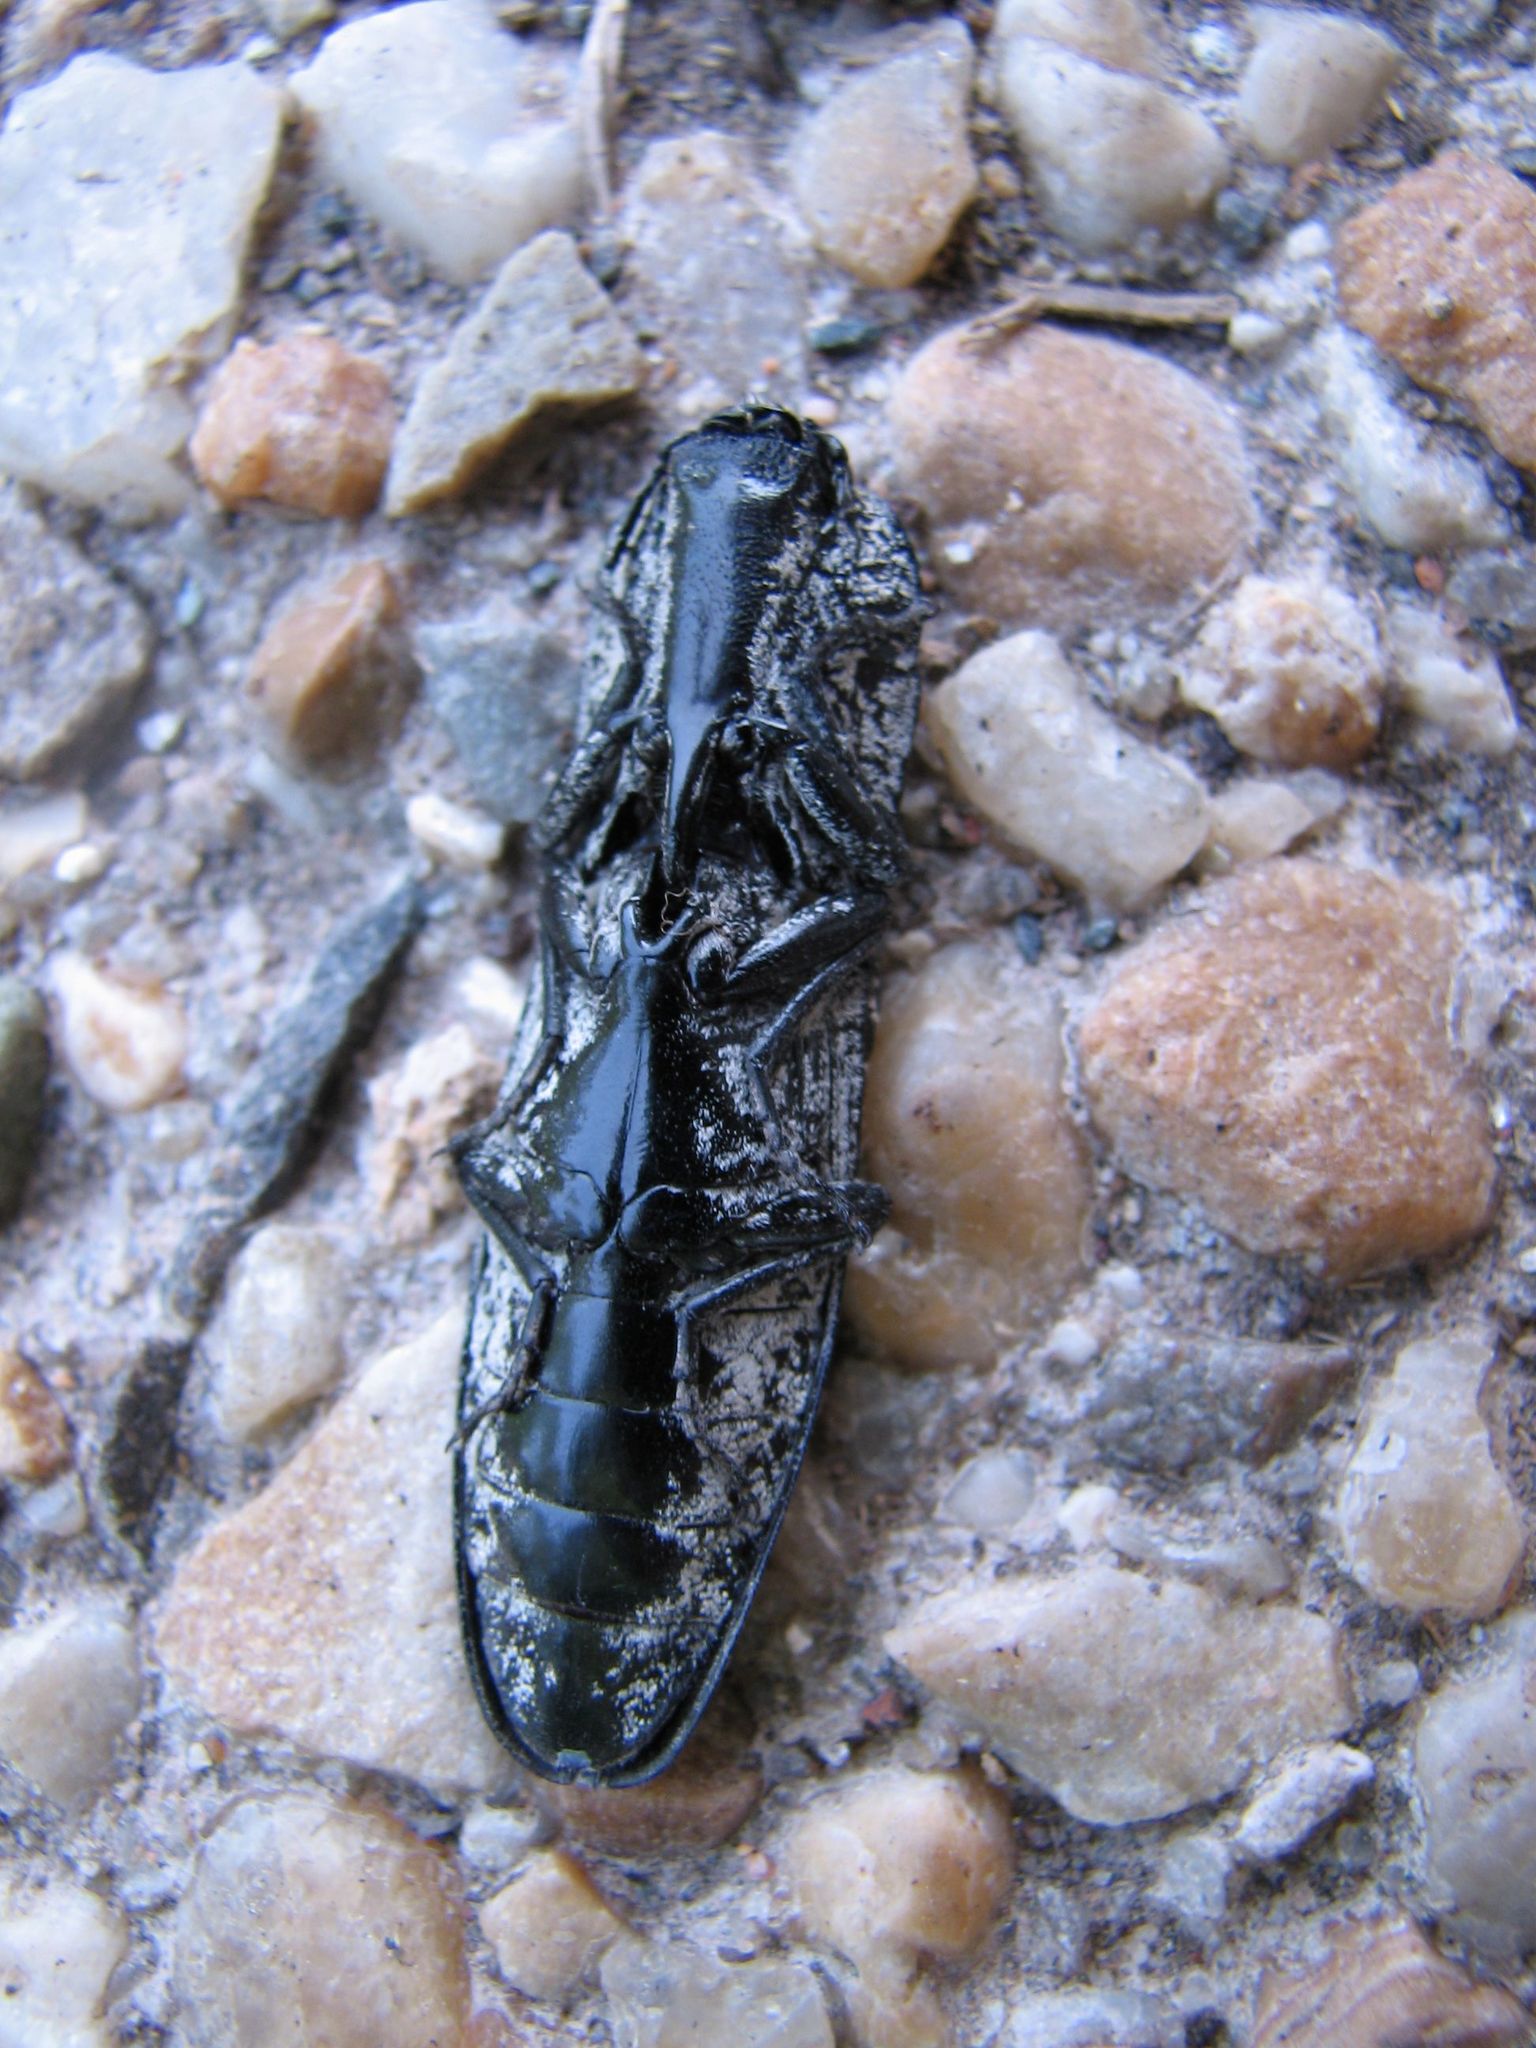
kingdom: Animalia
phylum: Arthropoda
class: Insecta
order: Coleoptera
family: Elateridae
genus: Alaus
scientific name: Alaus oculatus
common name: Eastern eyed click beetle
